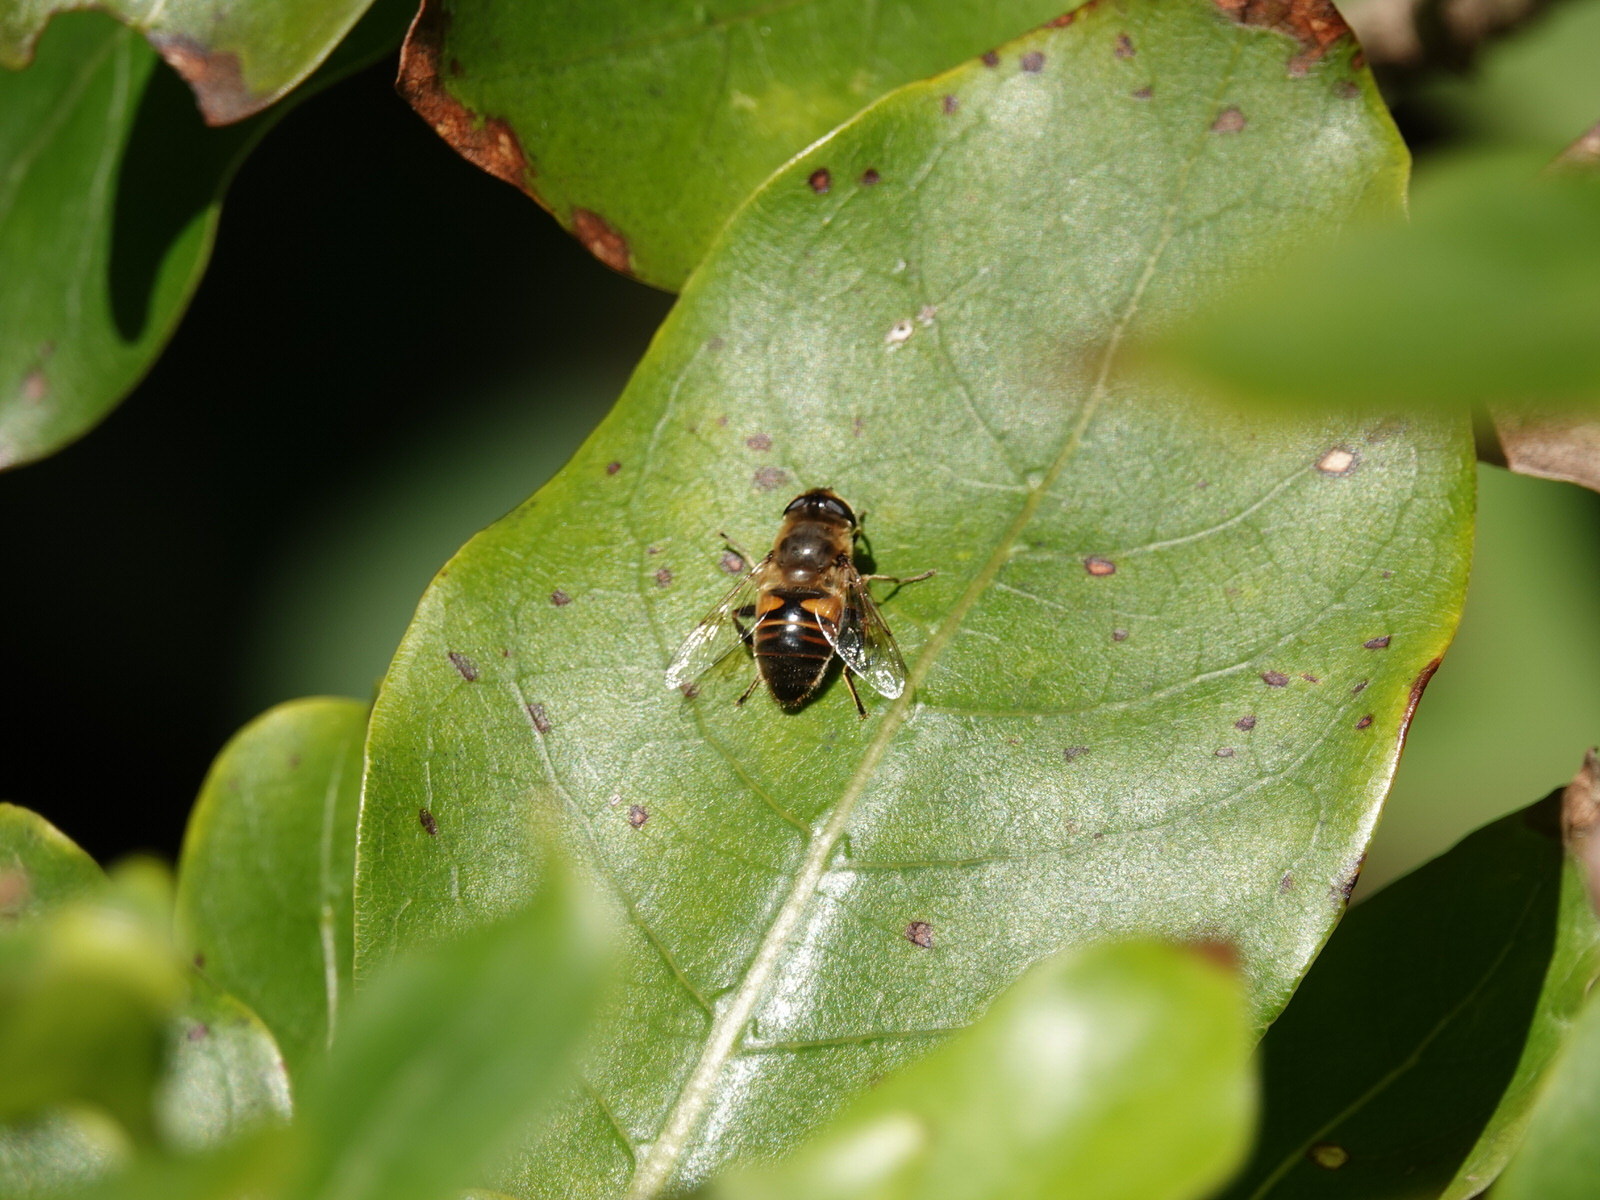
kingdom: Animalia
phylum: Arthropoda
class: Insecta
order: Diptera
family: Syrphidae
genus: Eristalis
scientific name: Eristalis tenax
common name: Drone fly
